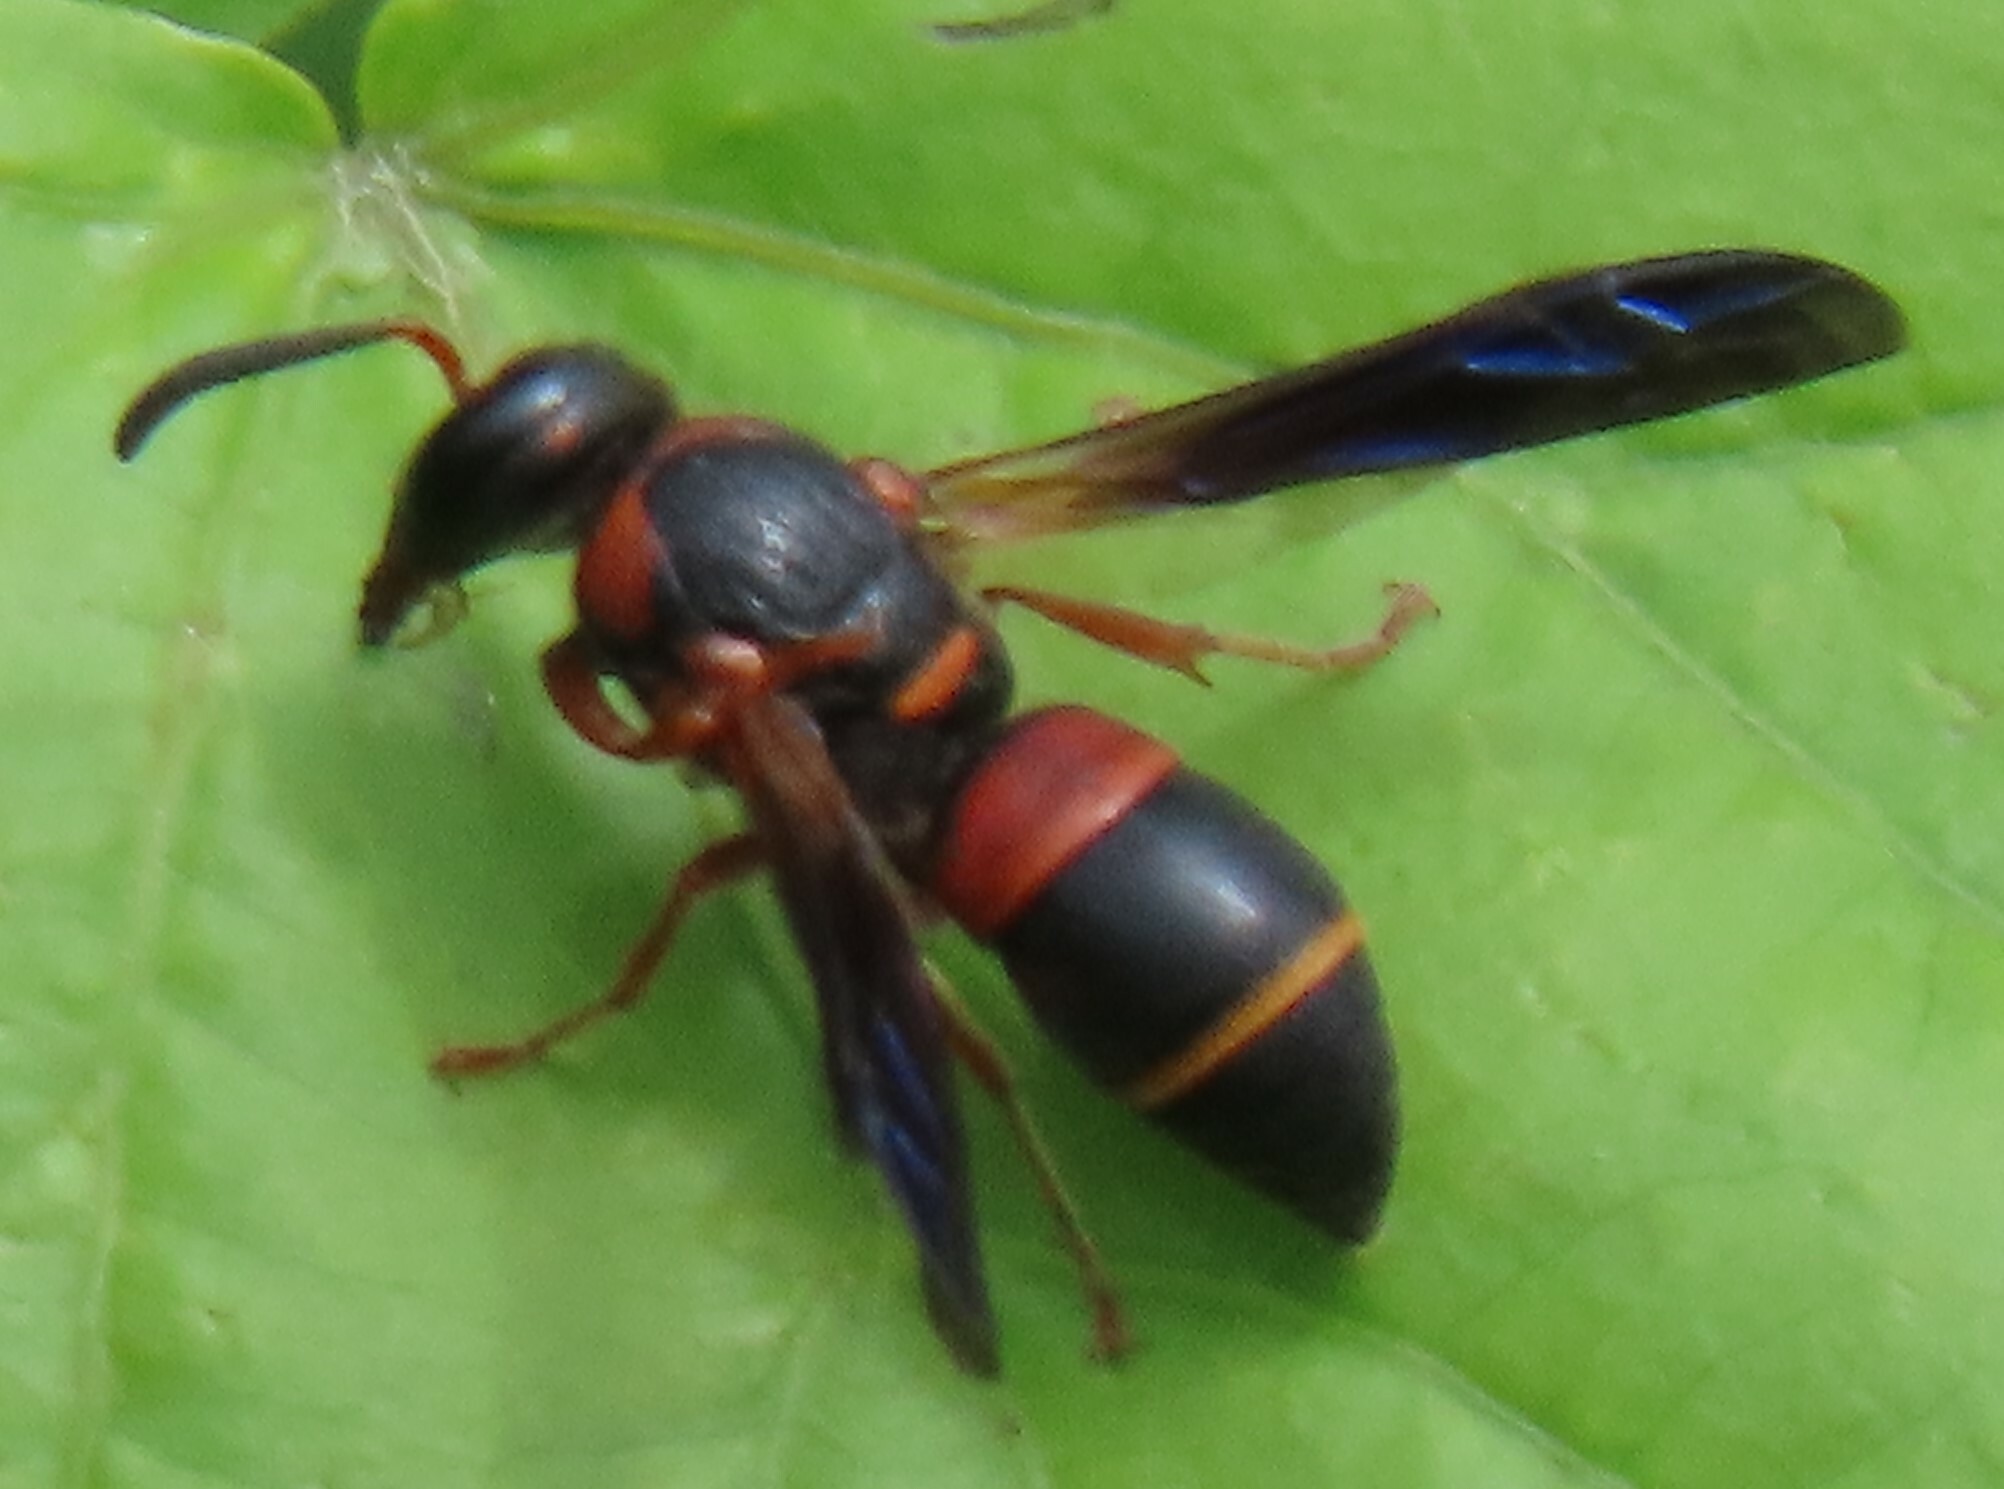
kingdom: Animalia
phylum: Arthropoda
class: Insecta
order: Hymenoptera
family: Eumenidae
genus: Pachodynerus
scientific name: Pachodynerus erynnis
